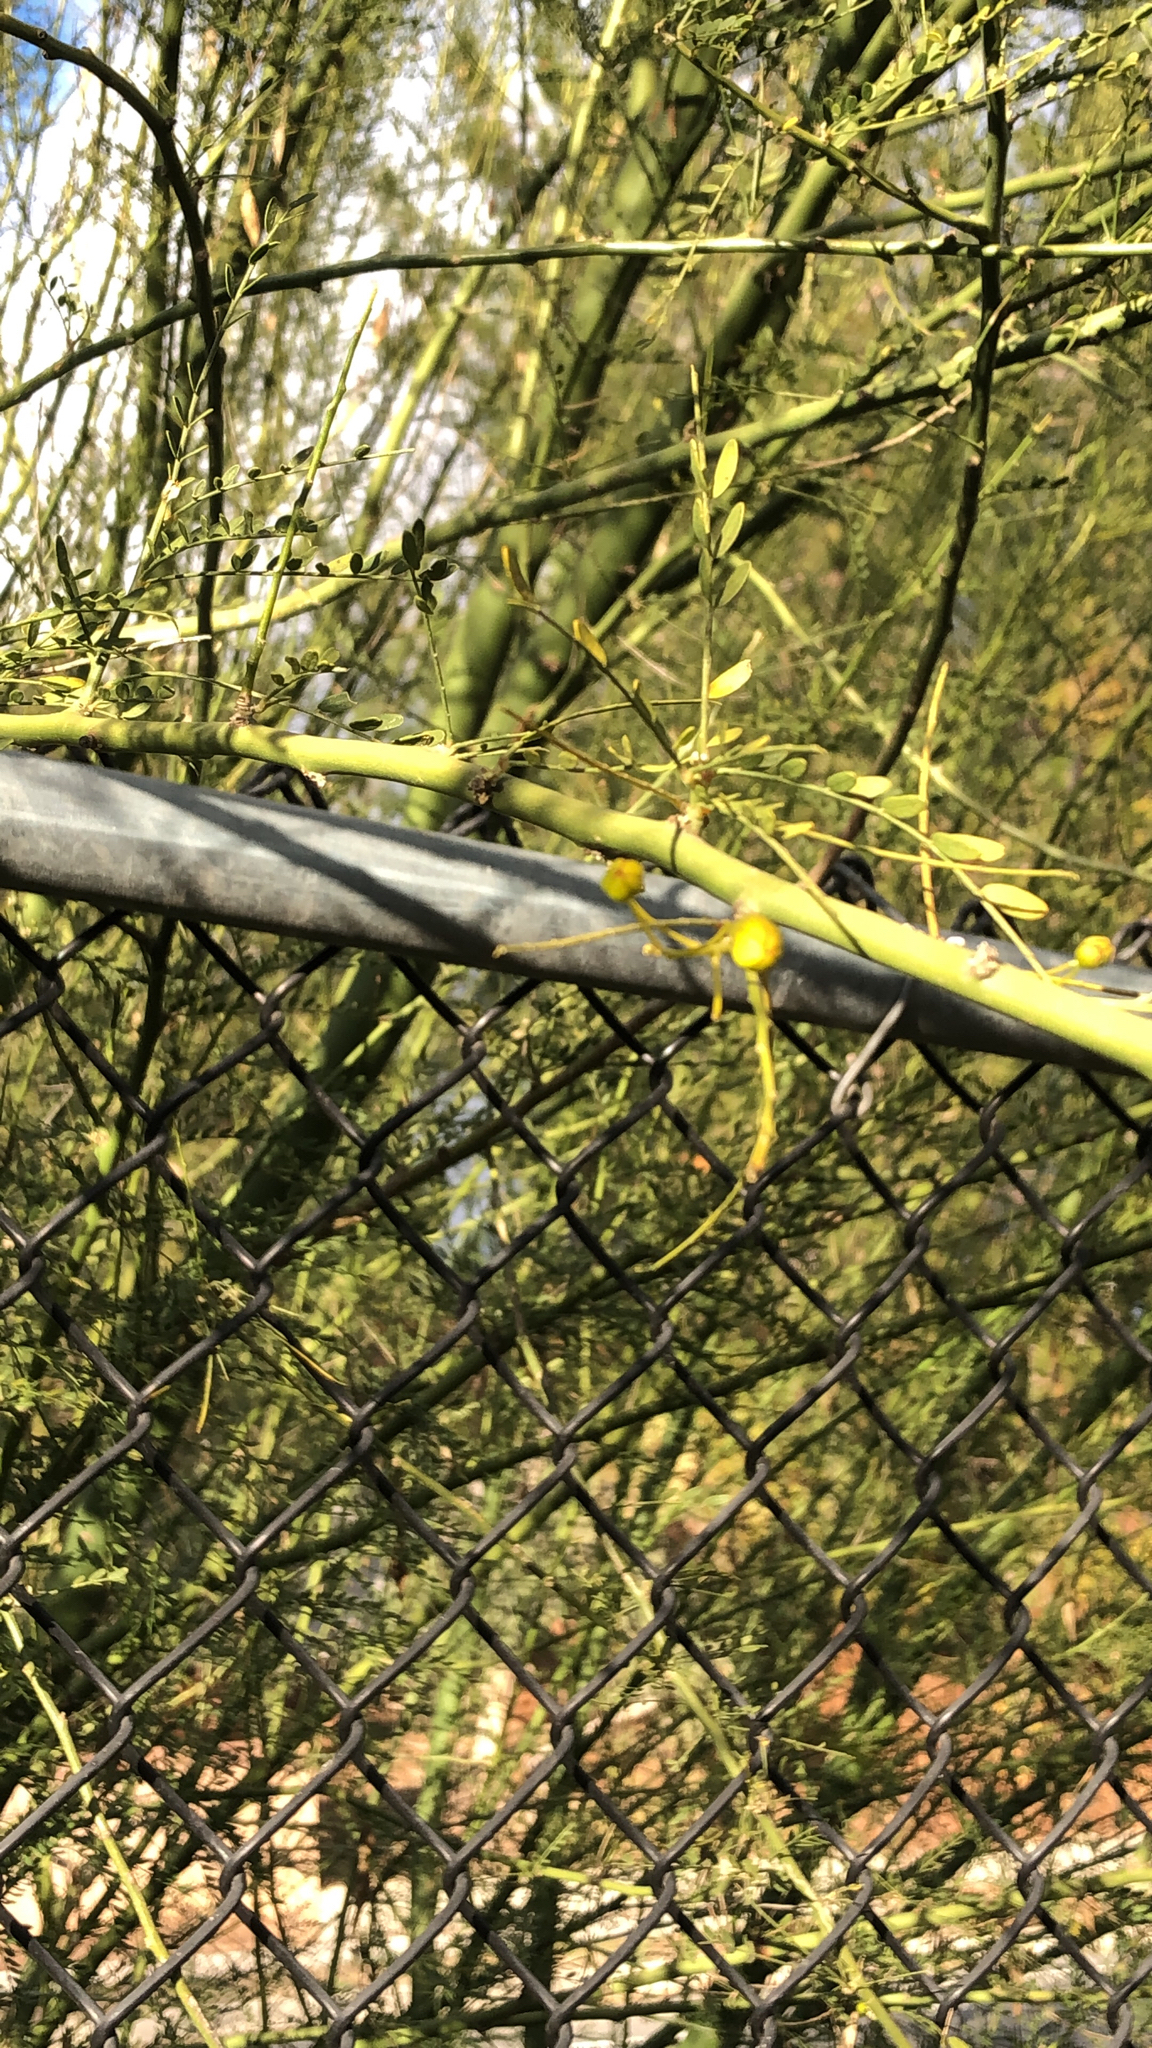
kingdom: Plantae
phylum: Tracheophyta
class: Magnoliopsida
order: Fabales
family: Fabaceae
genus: Parkinsonia
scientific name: Parkinsonia
